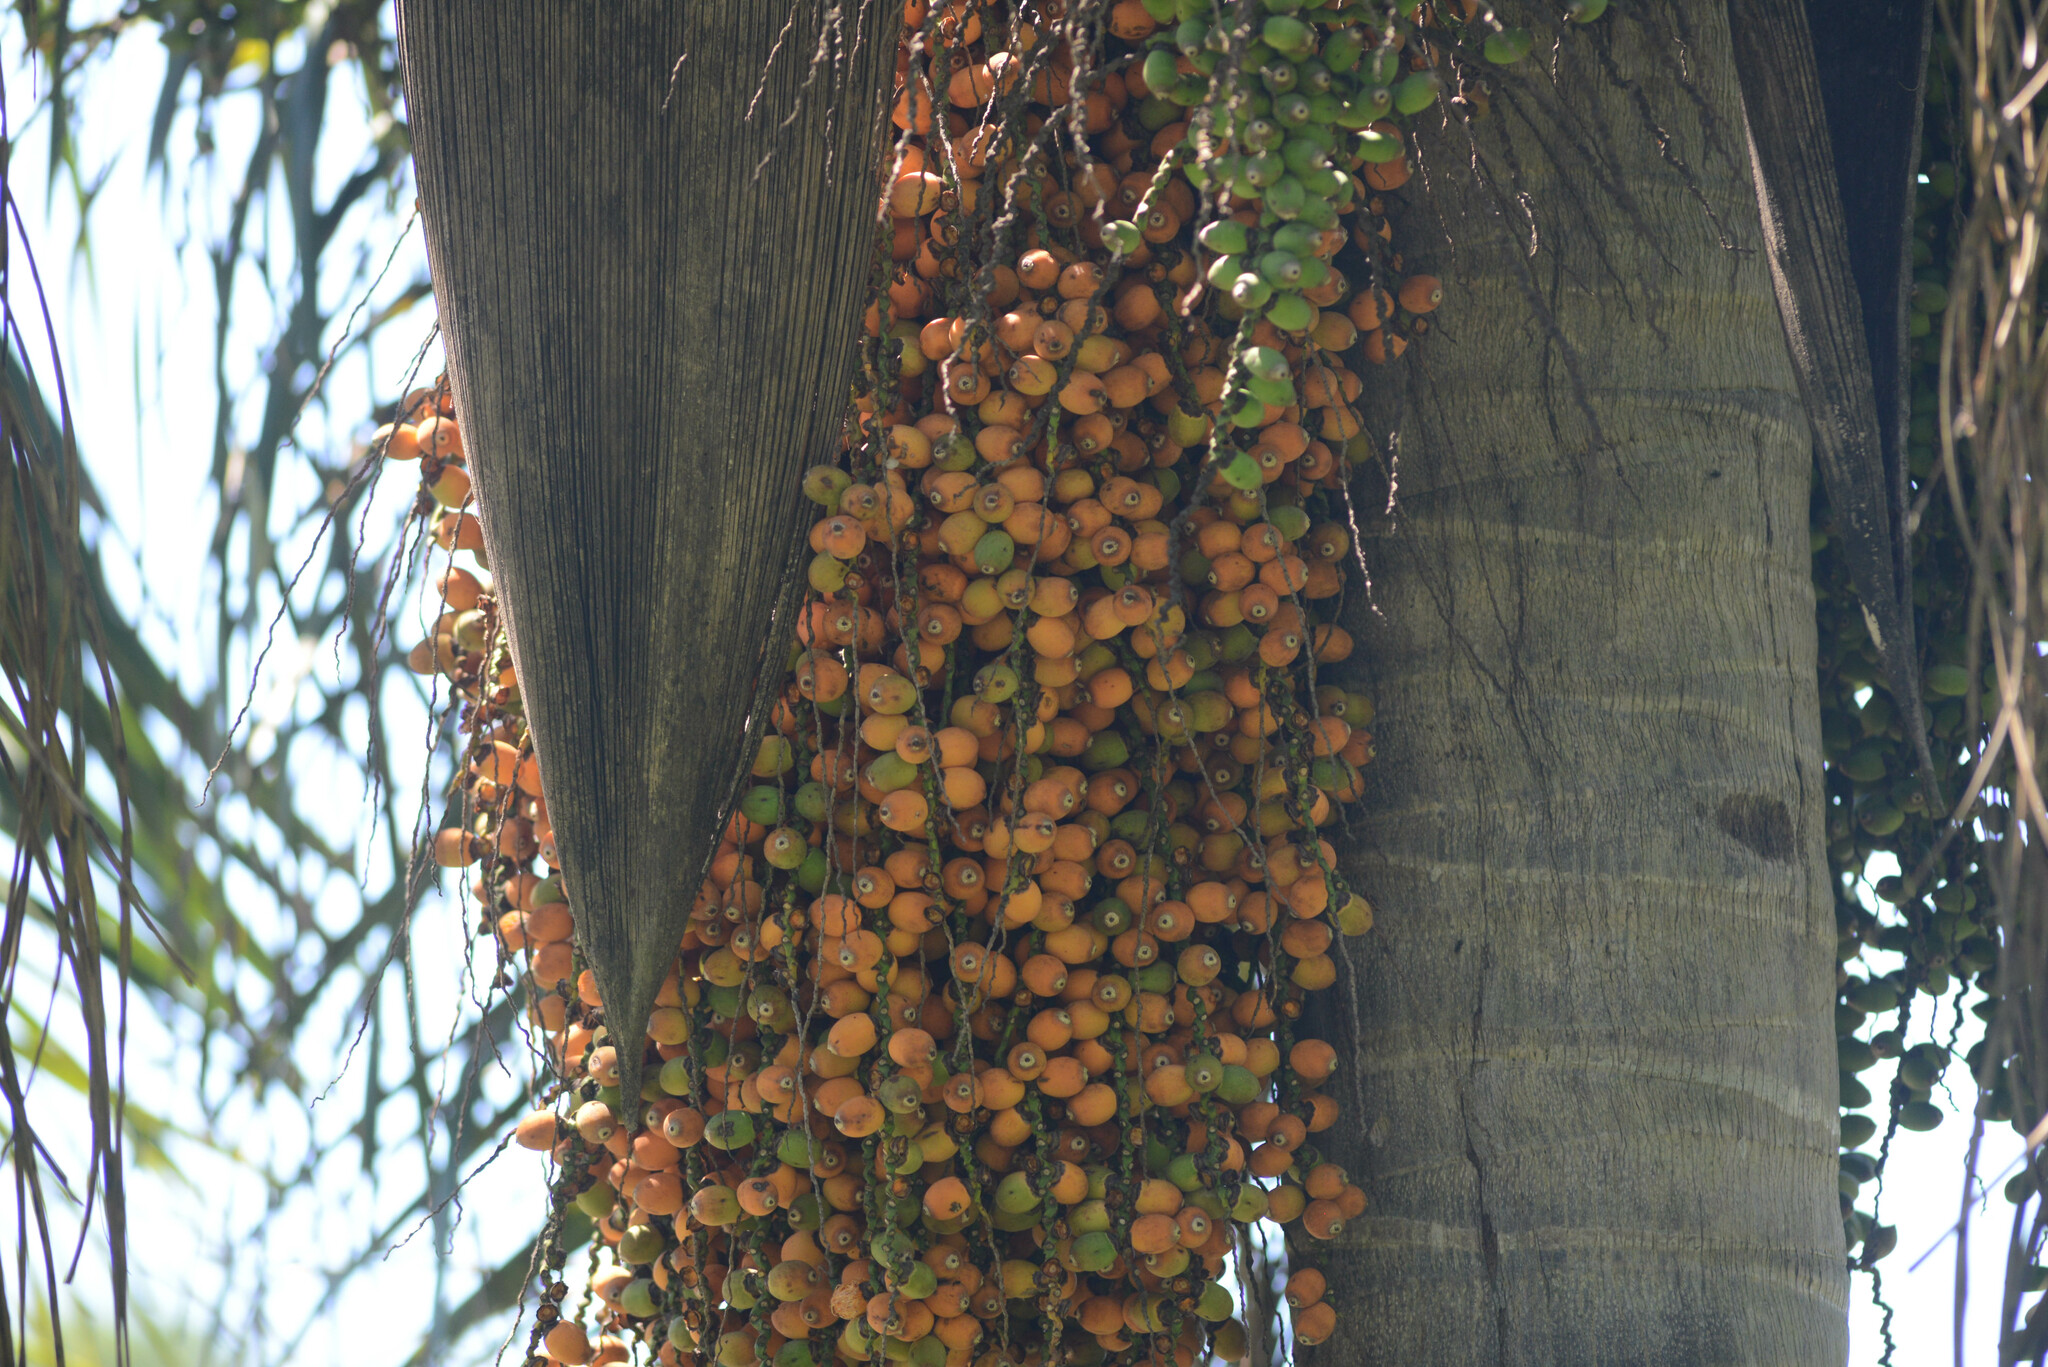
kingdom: Plantae
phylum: Tracheophyta
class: Liliopsida
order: Arecales
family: Arecaceae
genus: Syagrus
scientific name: Syagrus romanzoffiana
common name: Queen palm
